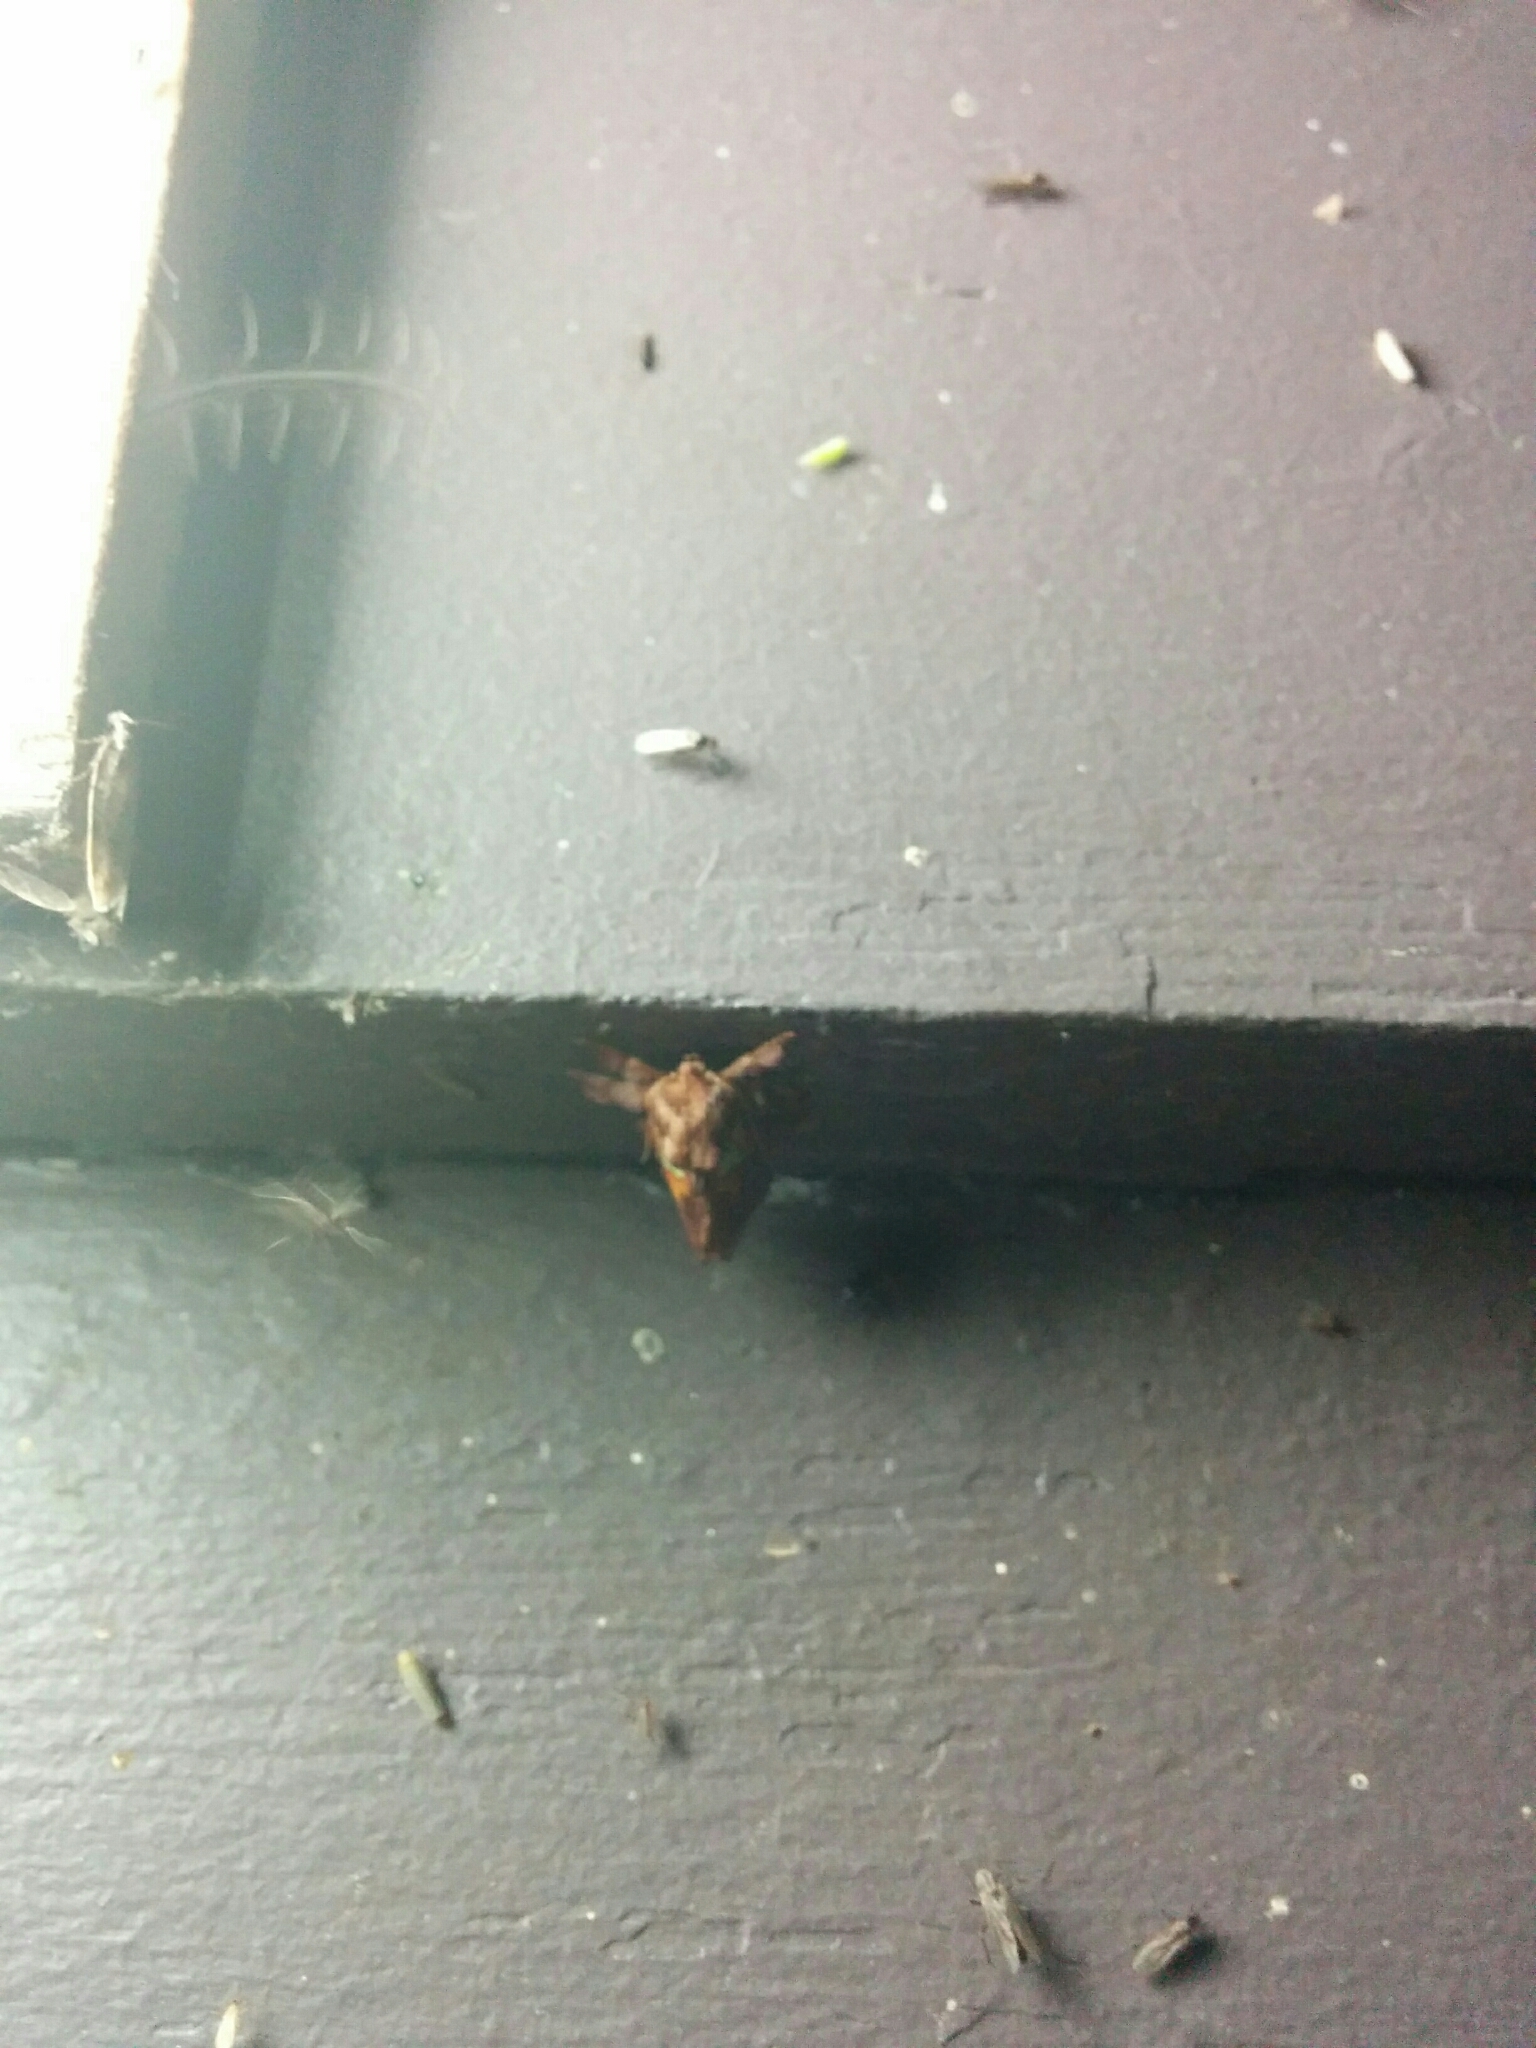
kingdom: Animalia
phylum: Arthropoda
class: Insecta
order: Lepidoptera
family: Limacodidae
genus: Euclea
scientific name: Euclea delphinii
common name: Spiny oak-slug moth
